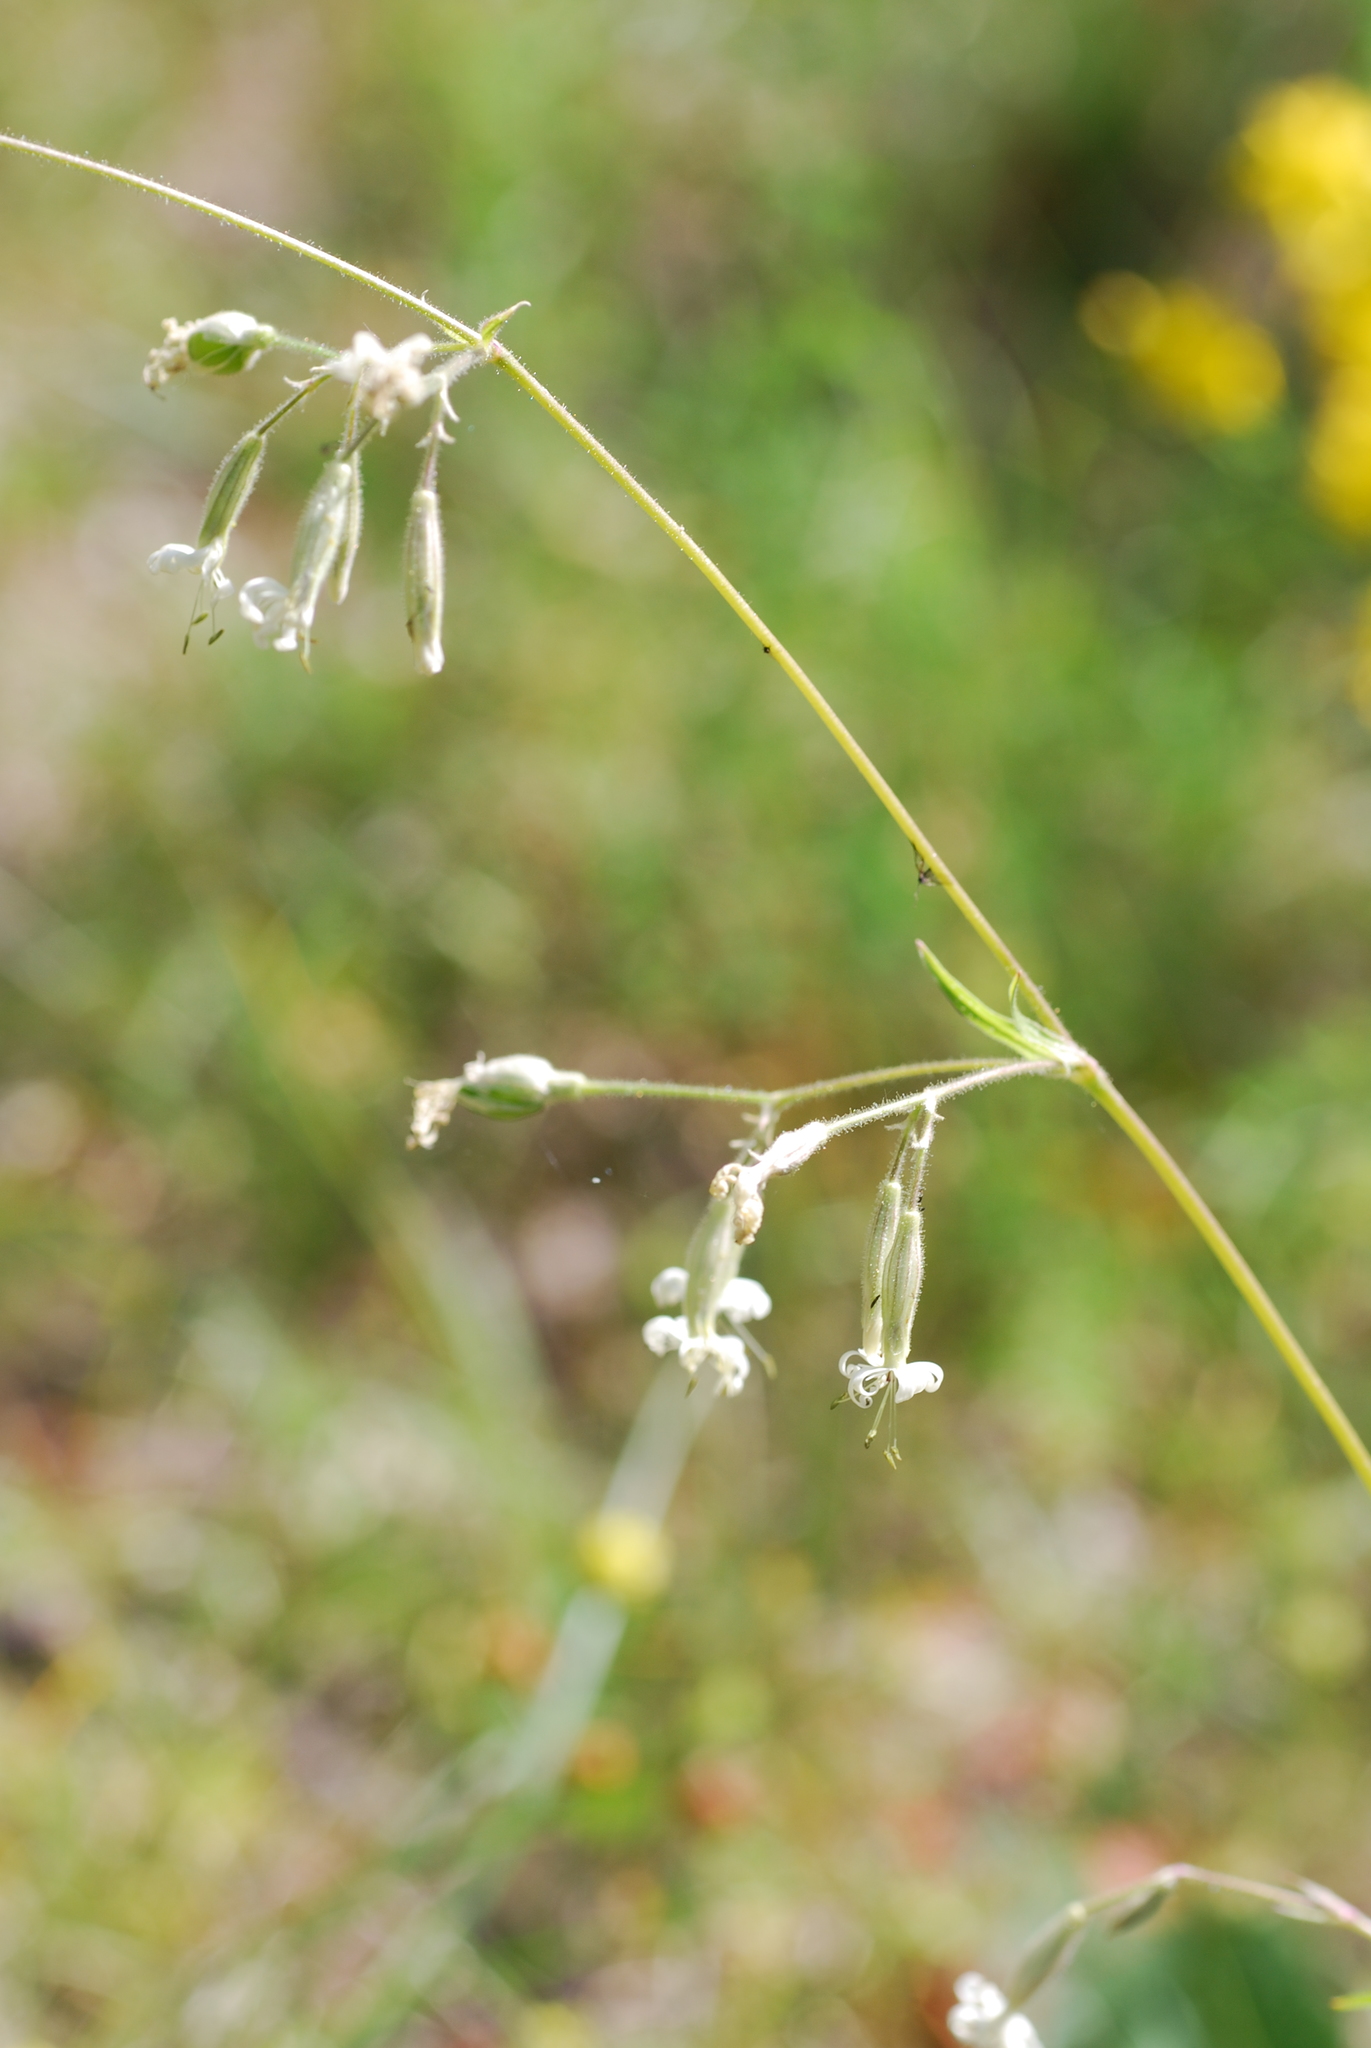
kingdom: Plantae
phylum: Tracheophyta
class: Magnoliopsida
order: Caryophyllales
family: Caryophyllaceae
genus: Silene
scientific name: Silene nutans
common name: Nottingham catchfly
